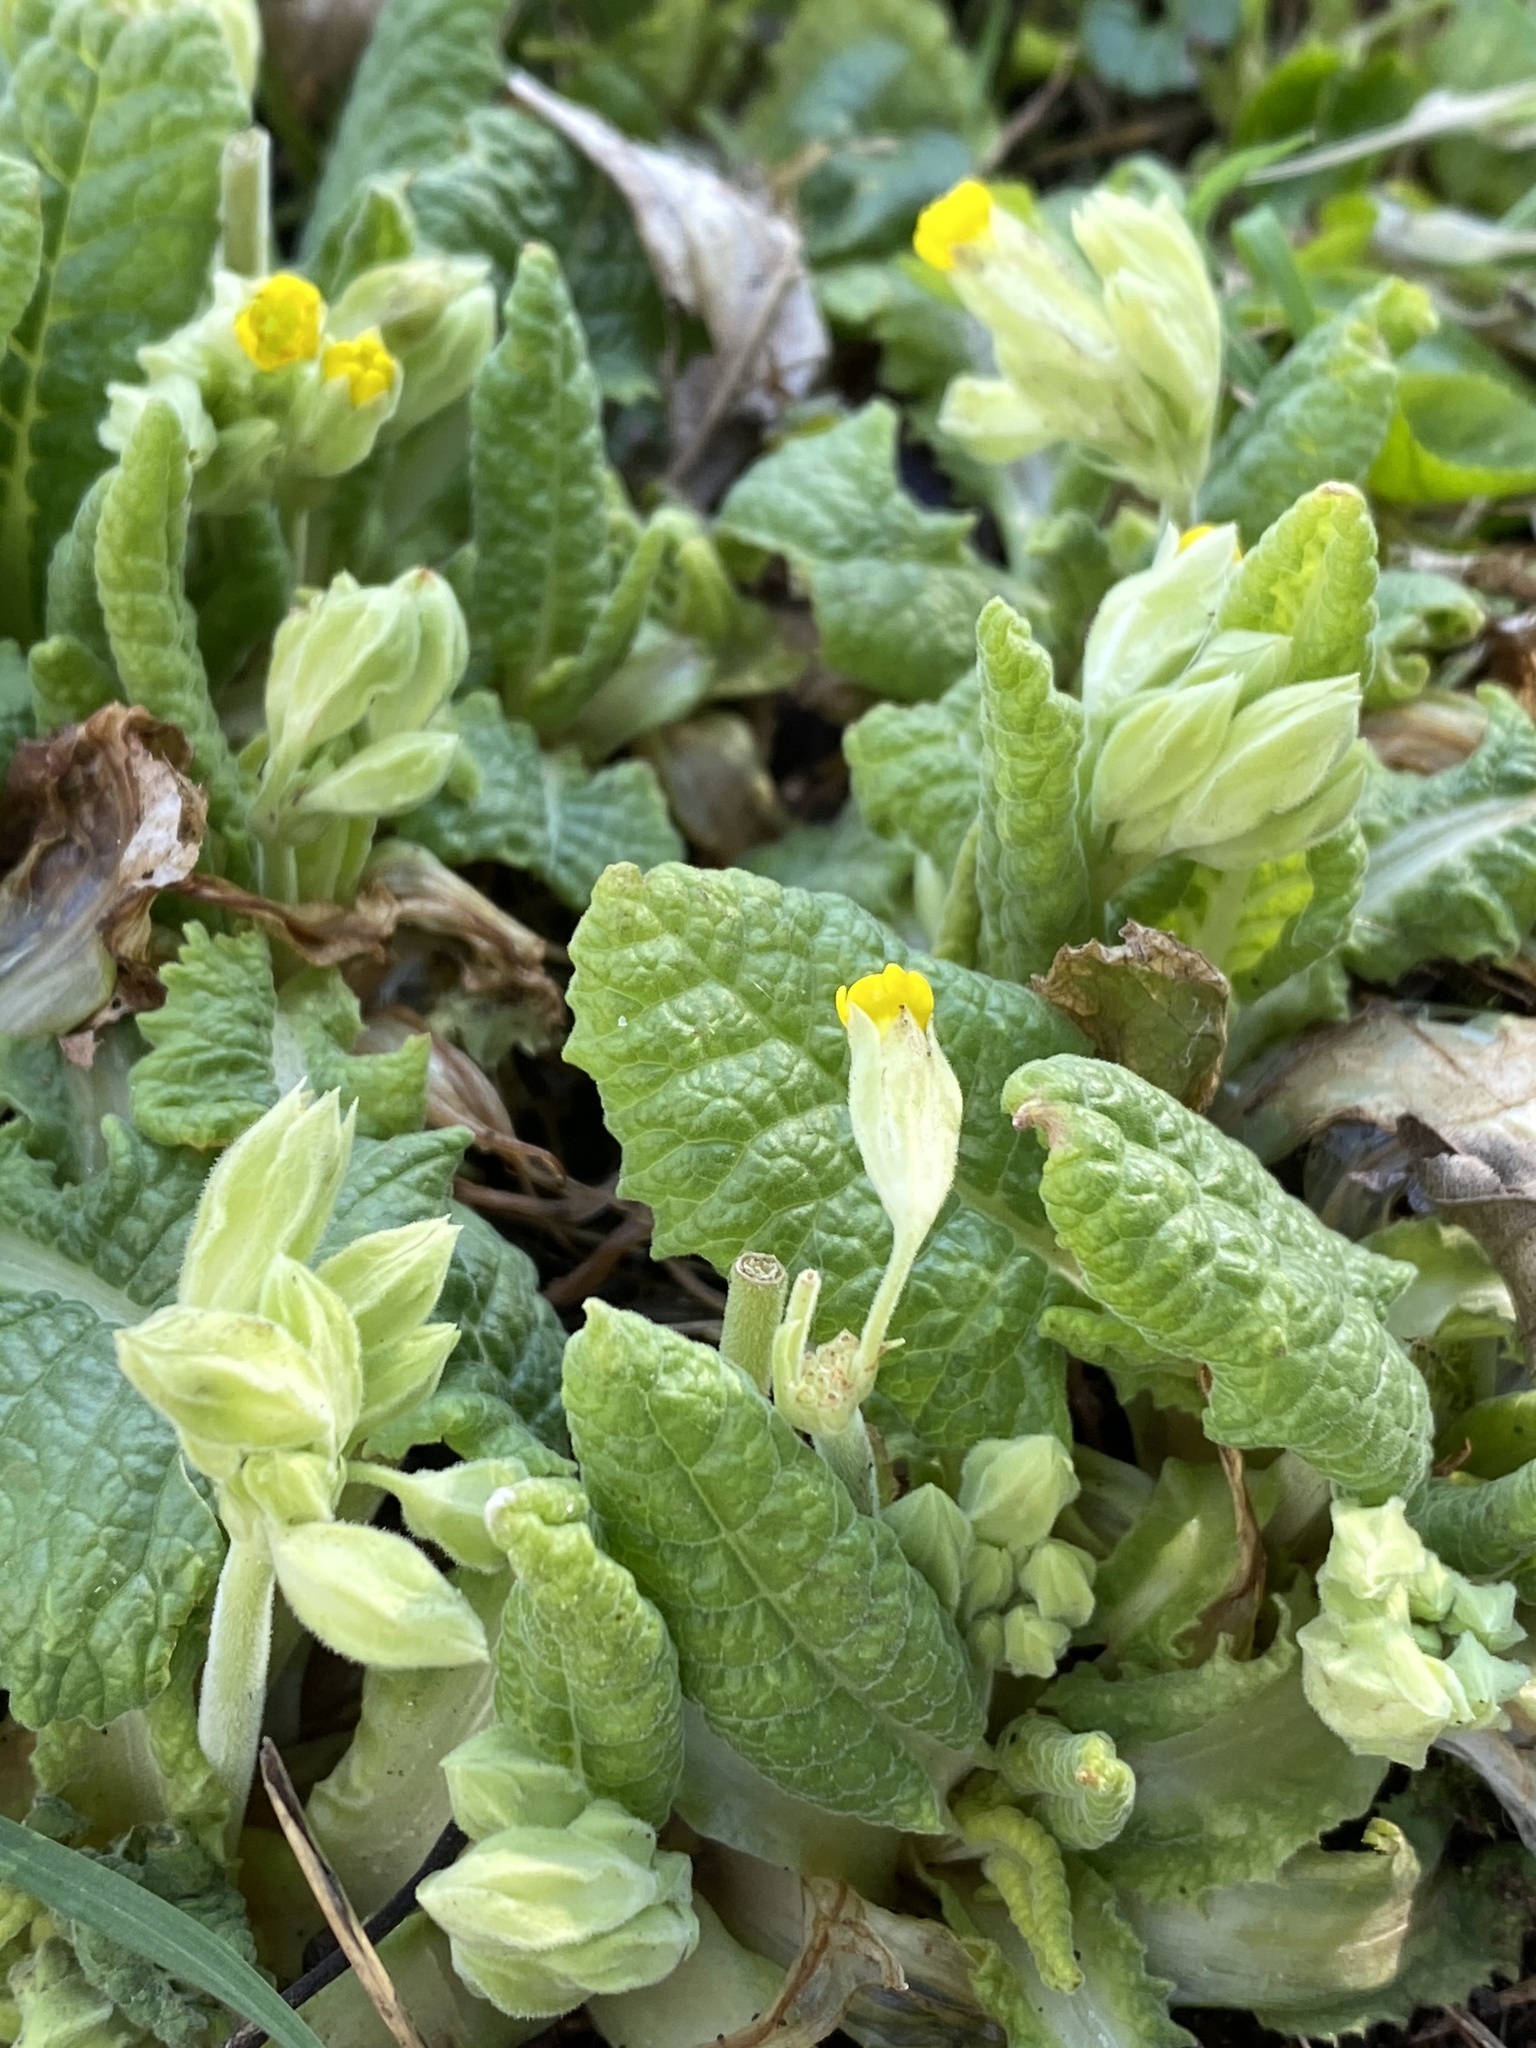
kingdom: Plantae
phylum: Tracheophyta
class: Magnoliopsida
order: Ericales
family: Primulaceae
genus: Primula
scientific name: Primula veris
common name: Cowslip
